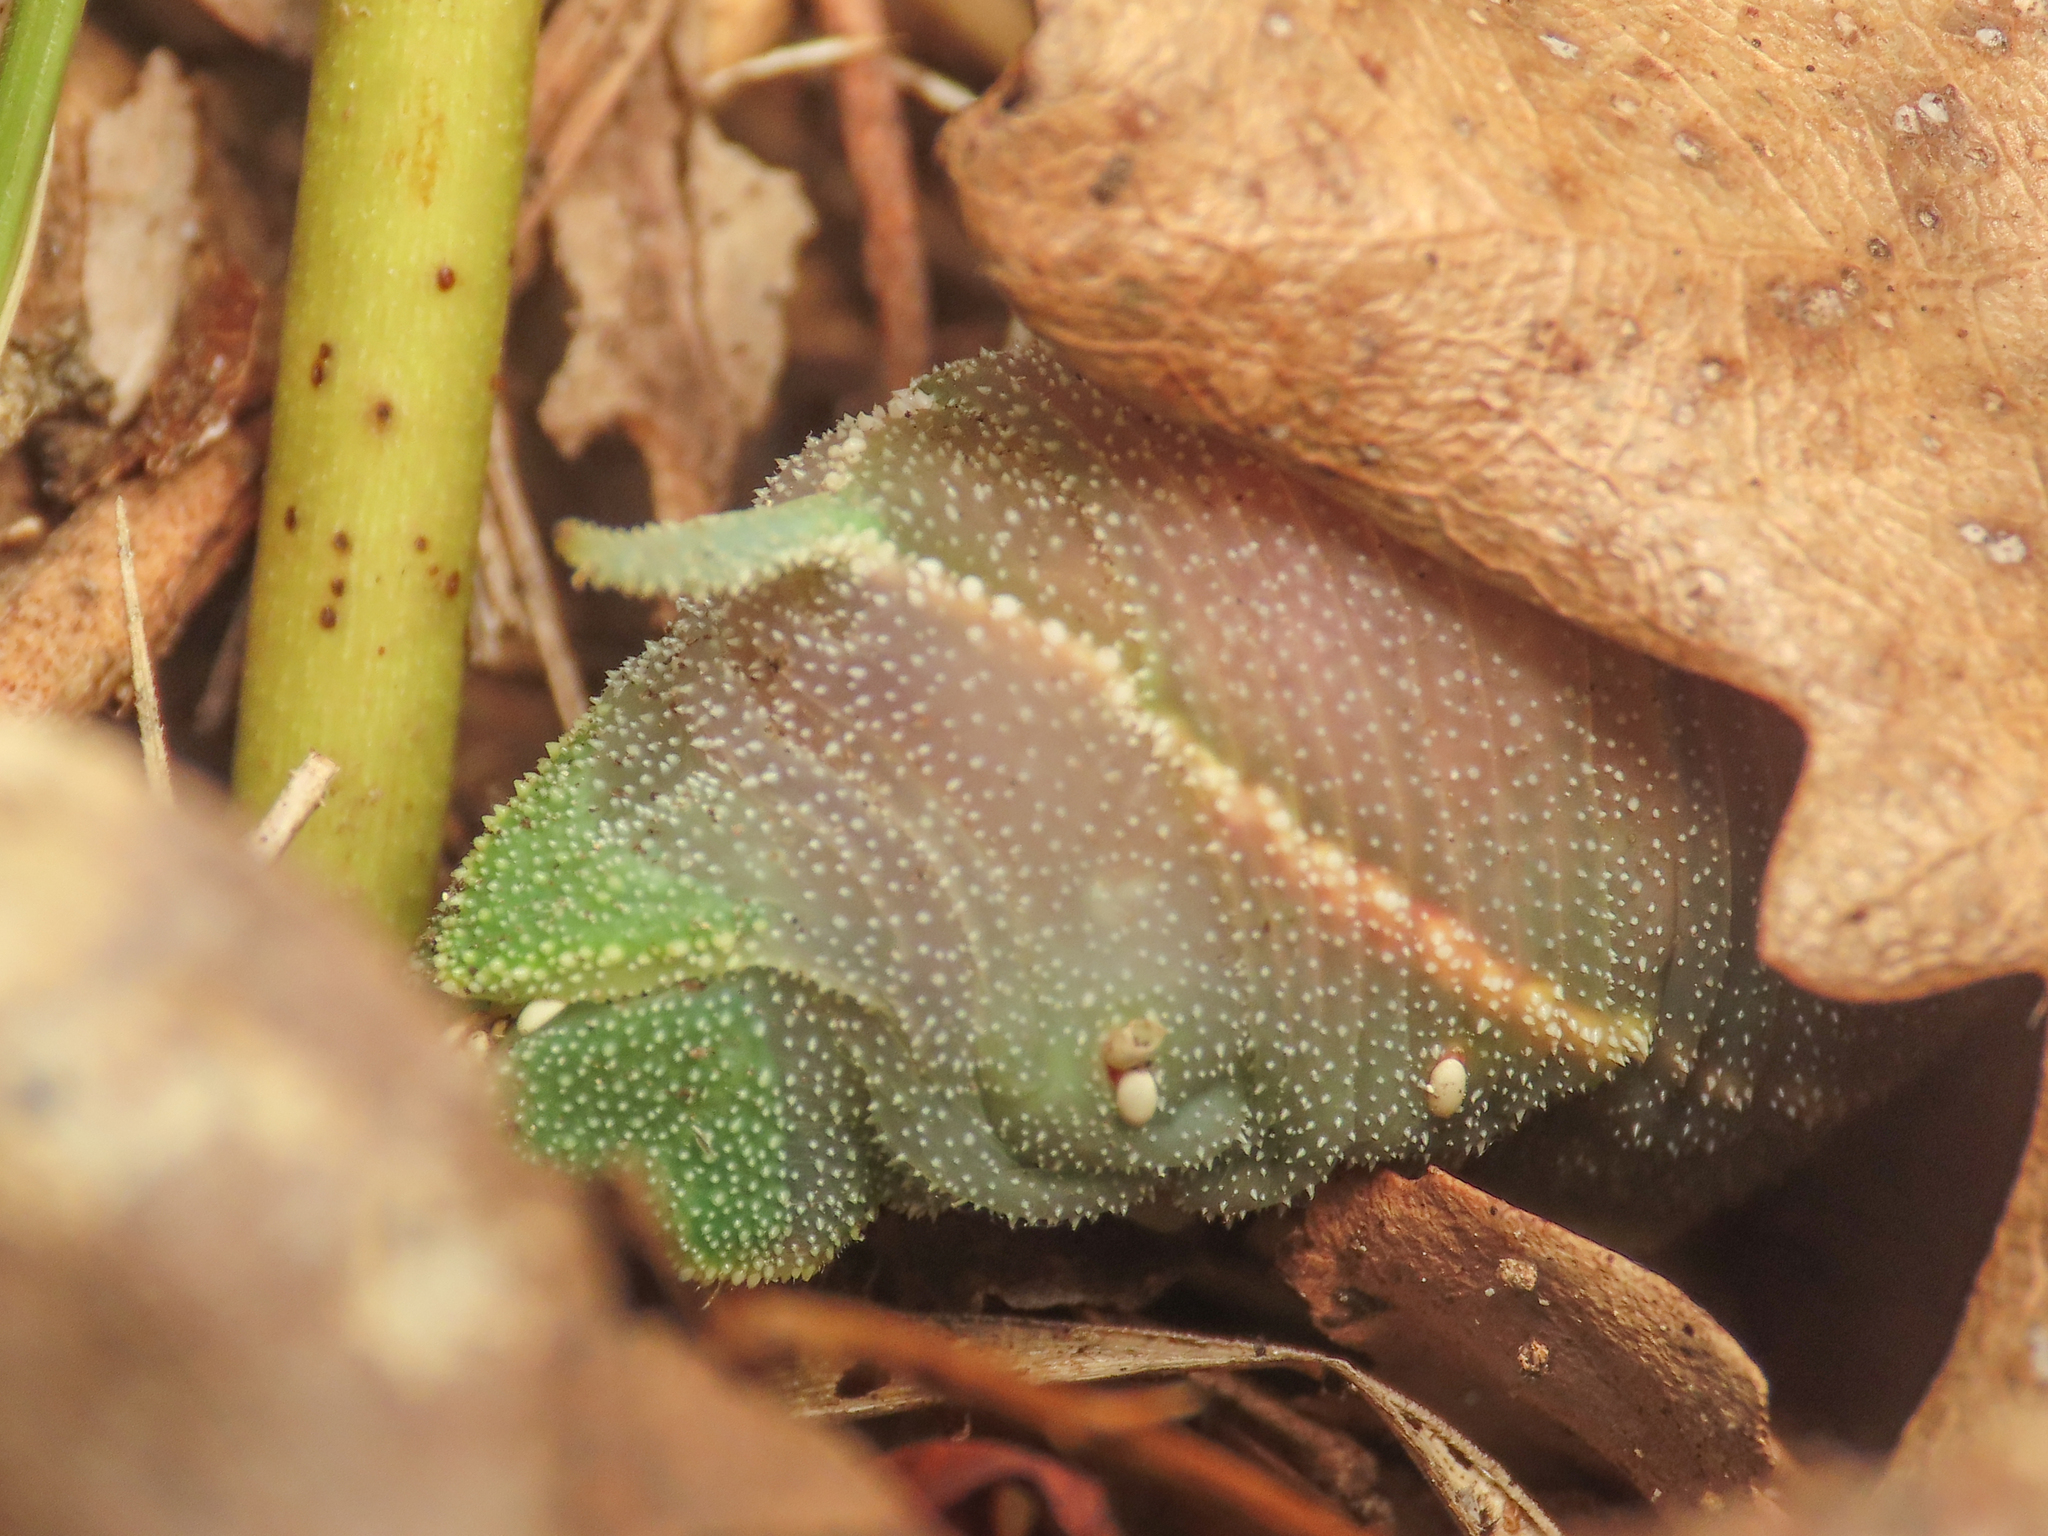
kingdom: Animalia
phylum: Arthropoda
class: Insecta
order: Lepidoptera
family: Sphingidae
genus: Marumba
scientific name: Marumba quercus
